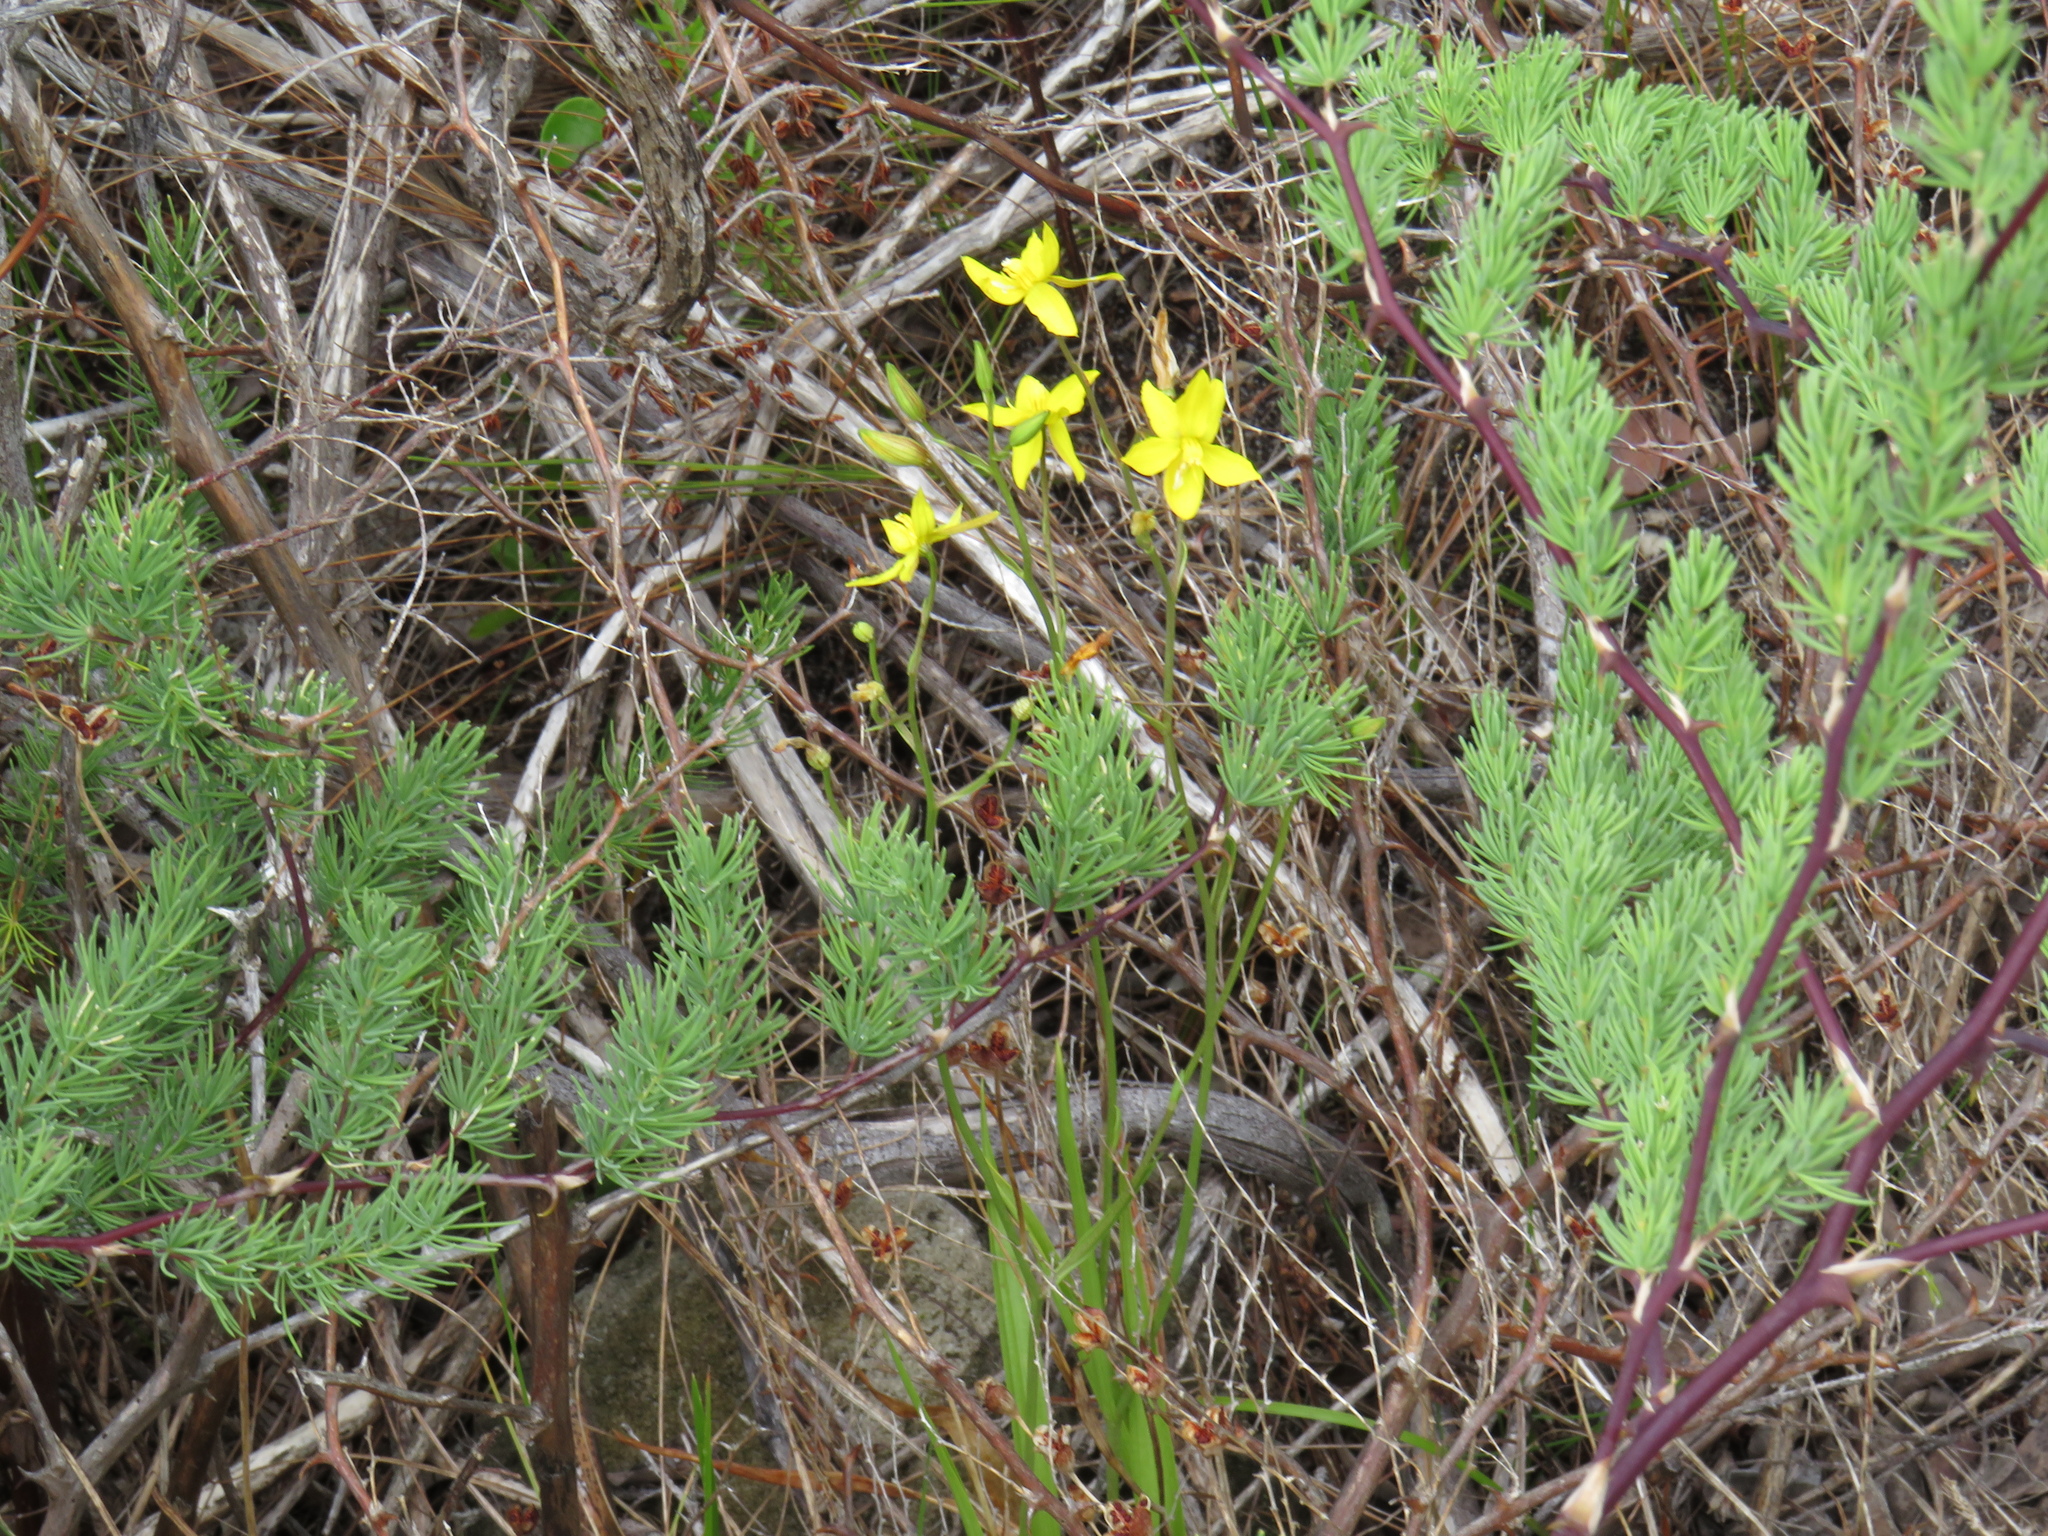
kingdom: Plantae
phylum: Tracheophyta
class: Liliopsida
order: Asparagales
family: Tecophilaeaceae
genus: Cyanella
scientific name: Cyanella lutea
